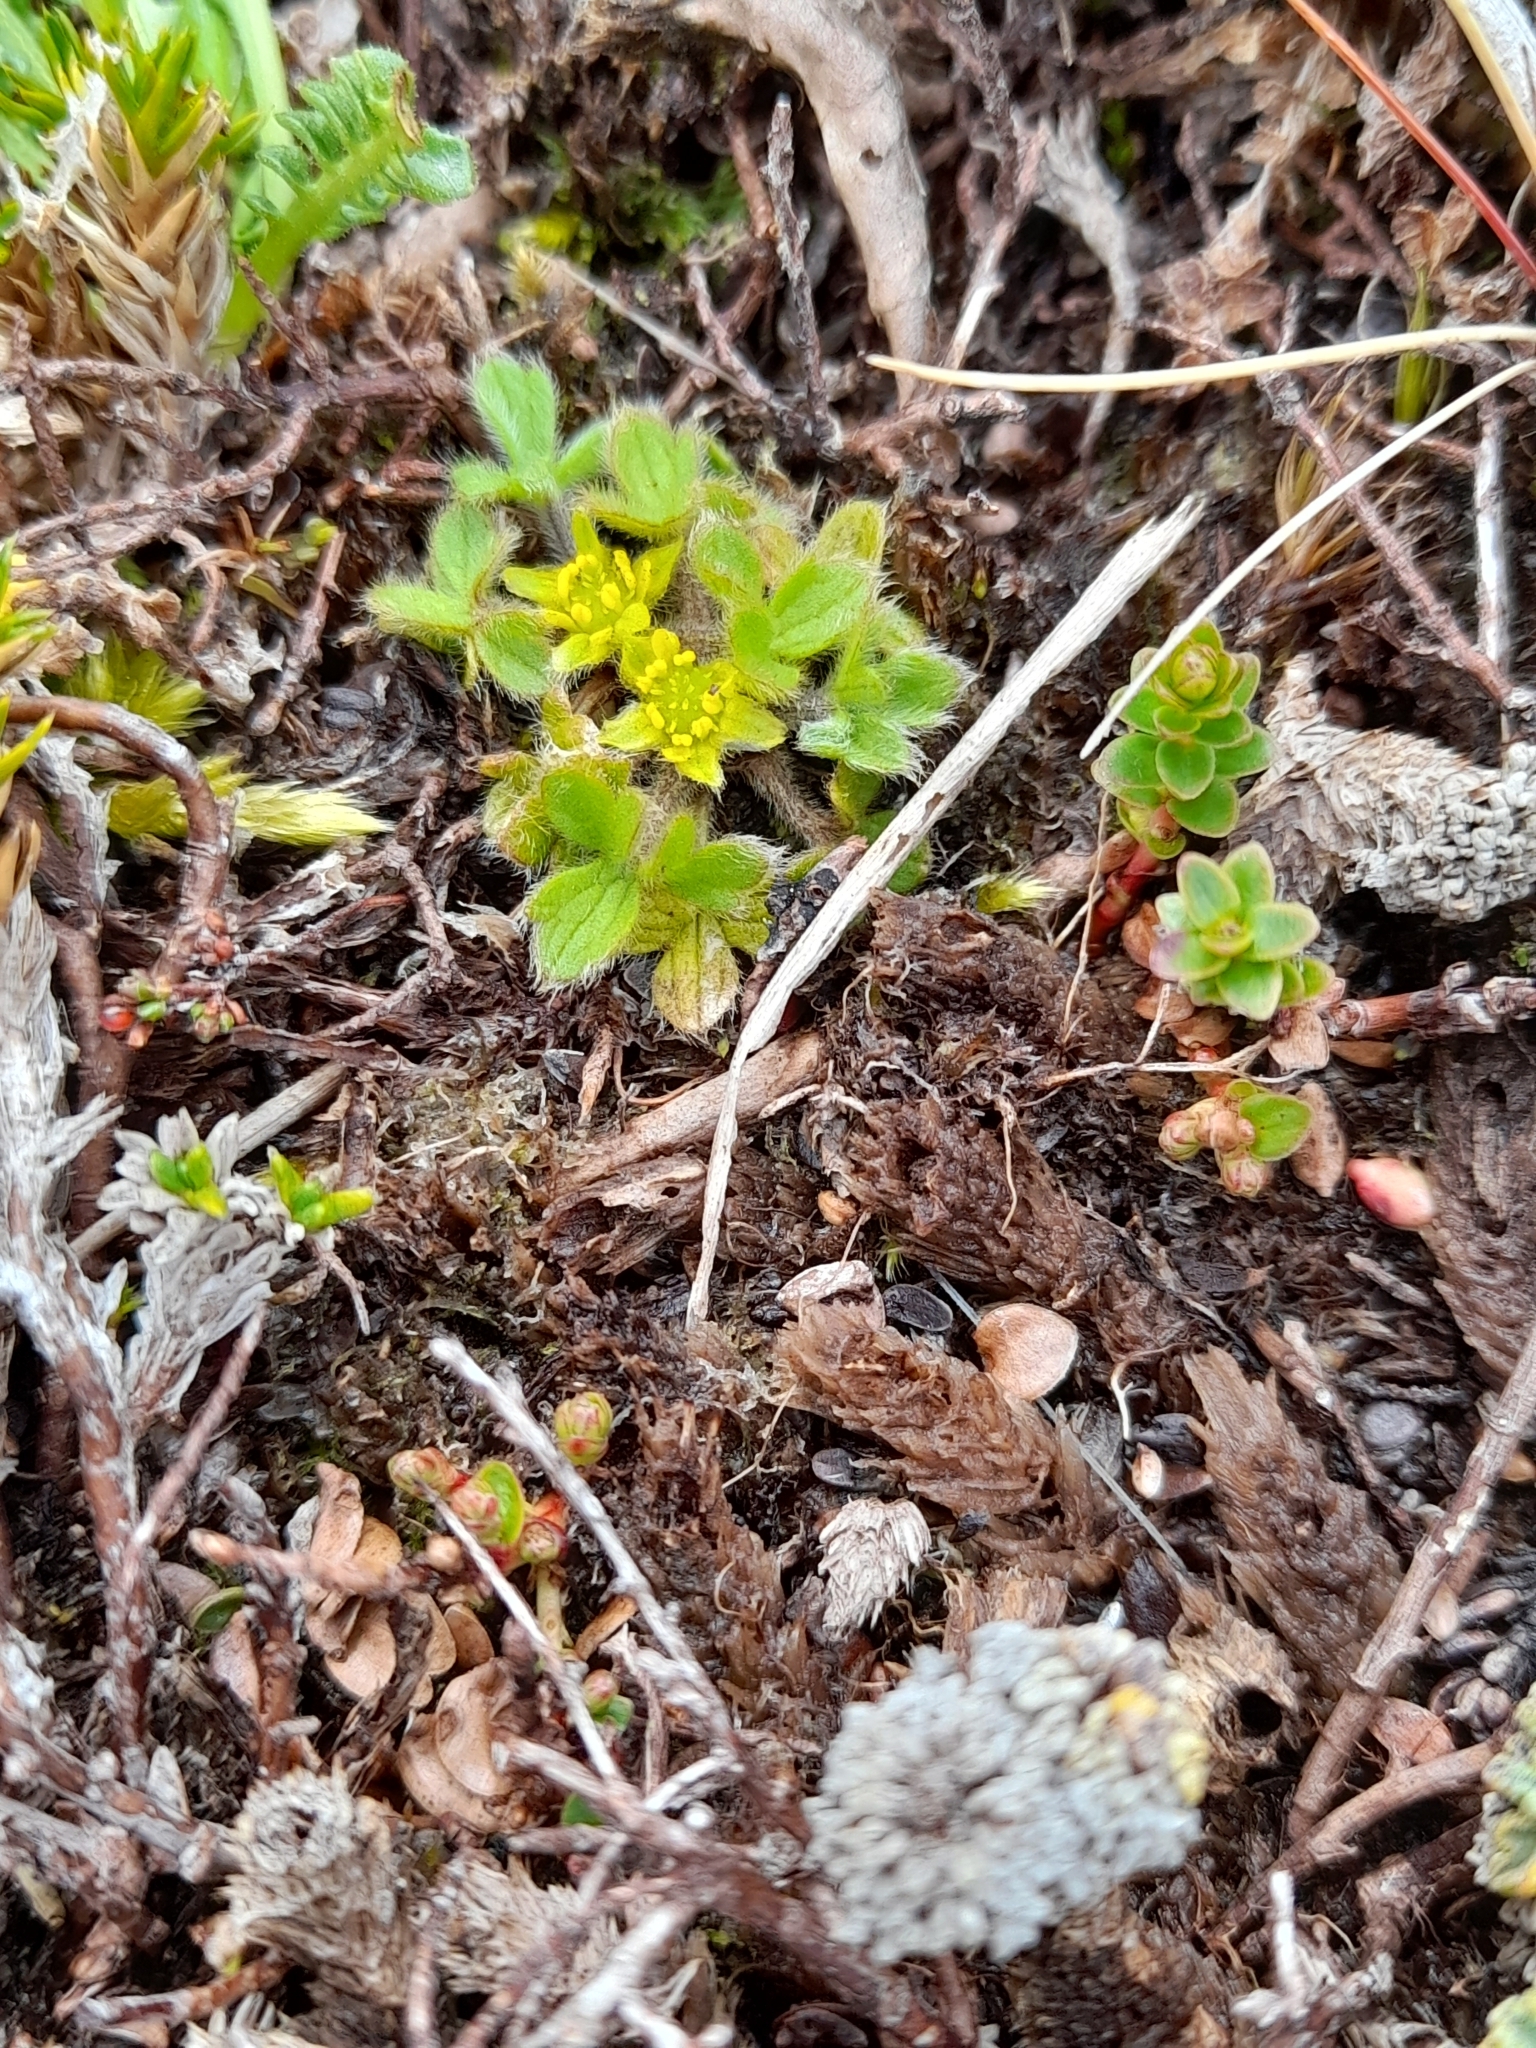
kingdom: Plantae
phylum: Tracheophyta
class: Magnoliopsida
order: Ranunculales
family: Ranunculaceae
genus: Ranunculus
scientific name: Ranunculus sericocephalus
